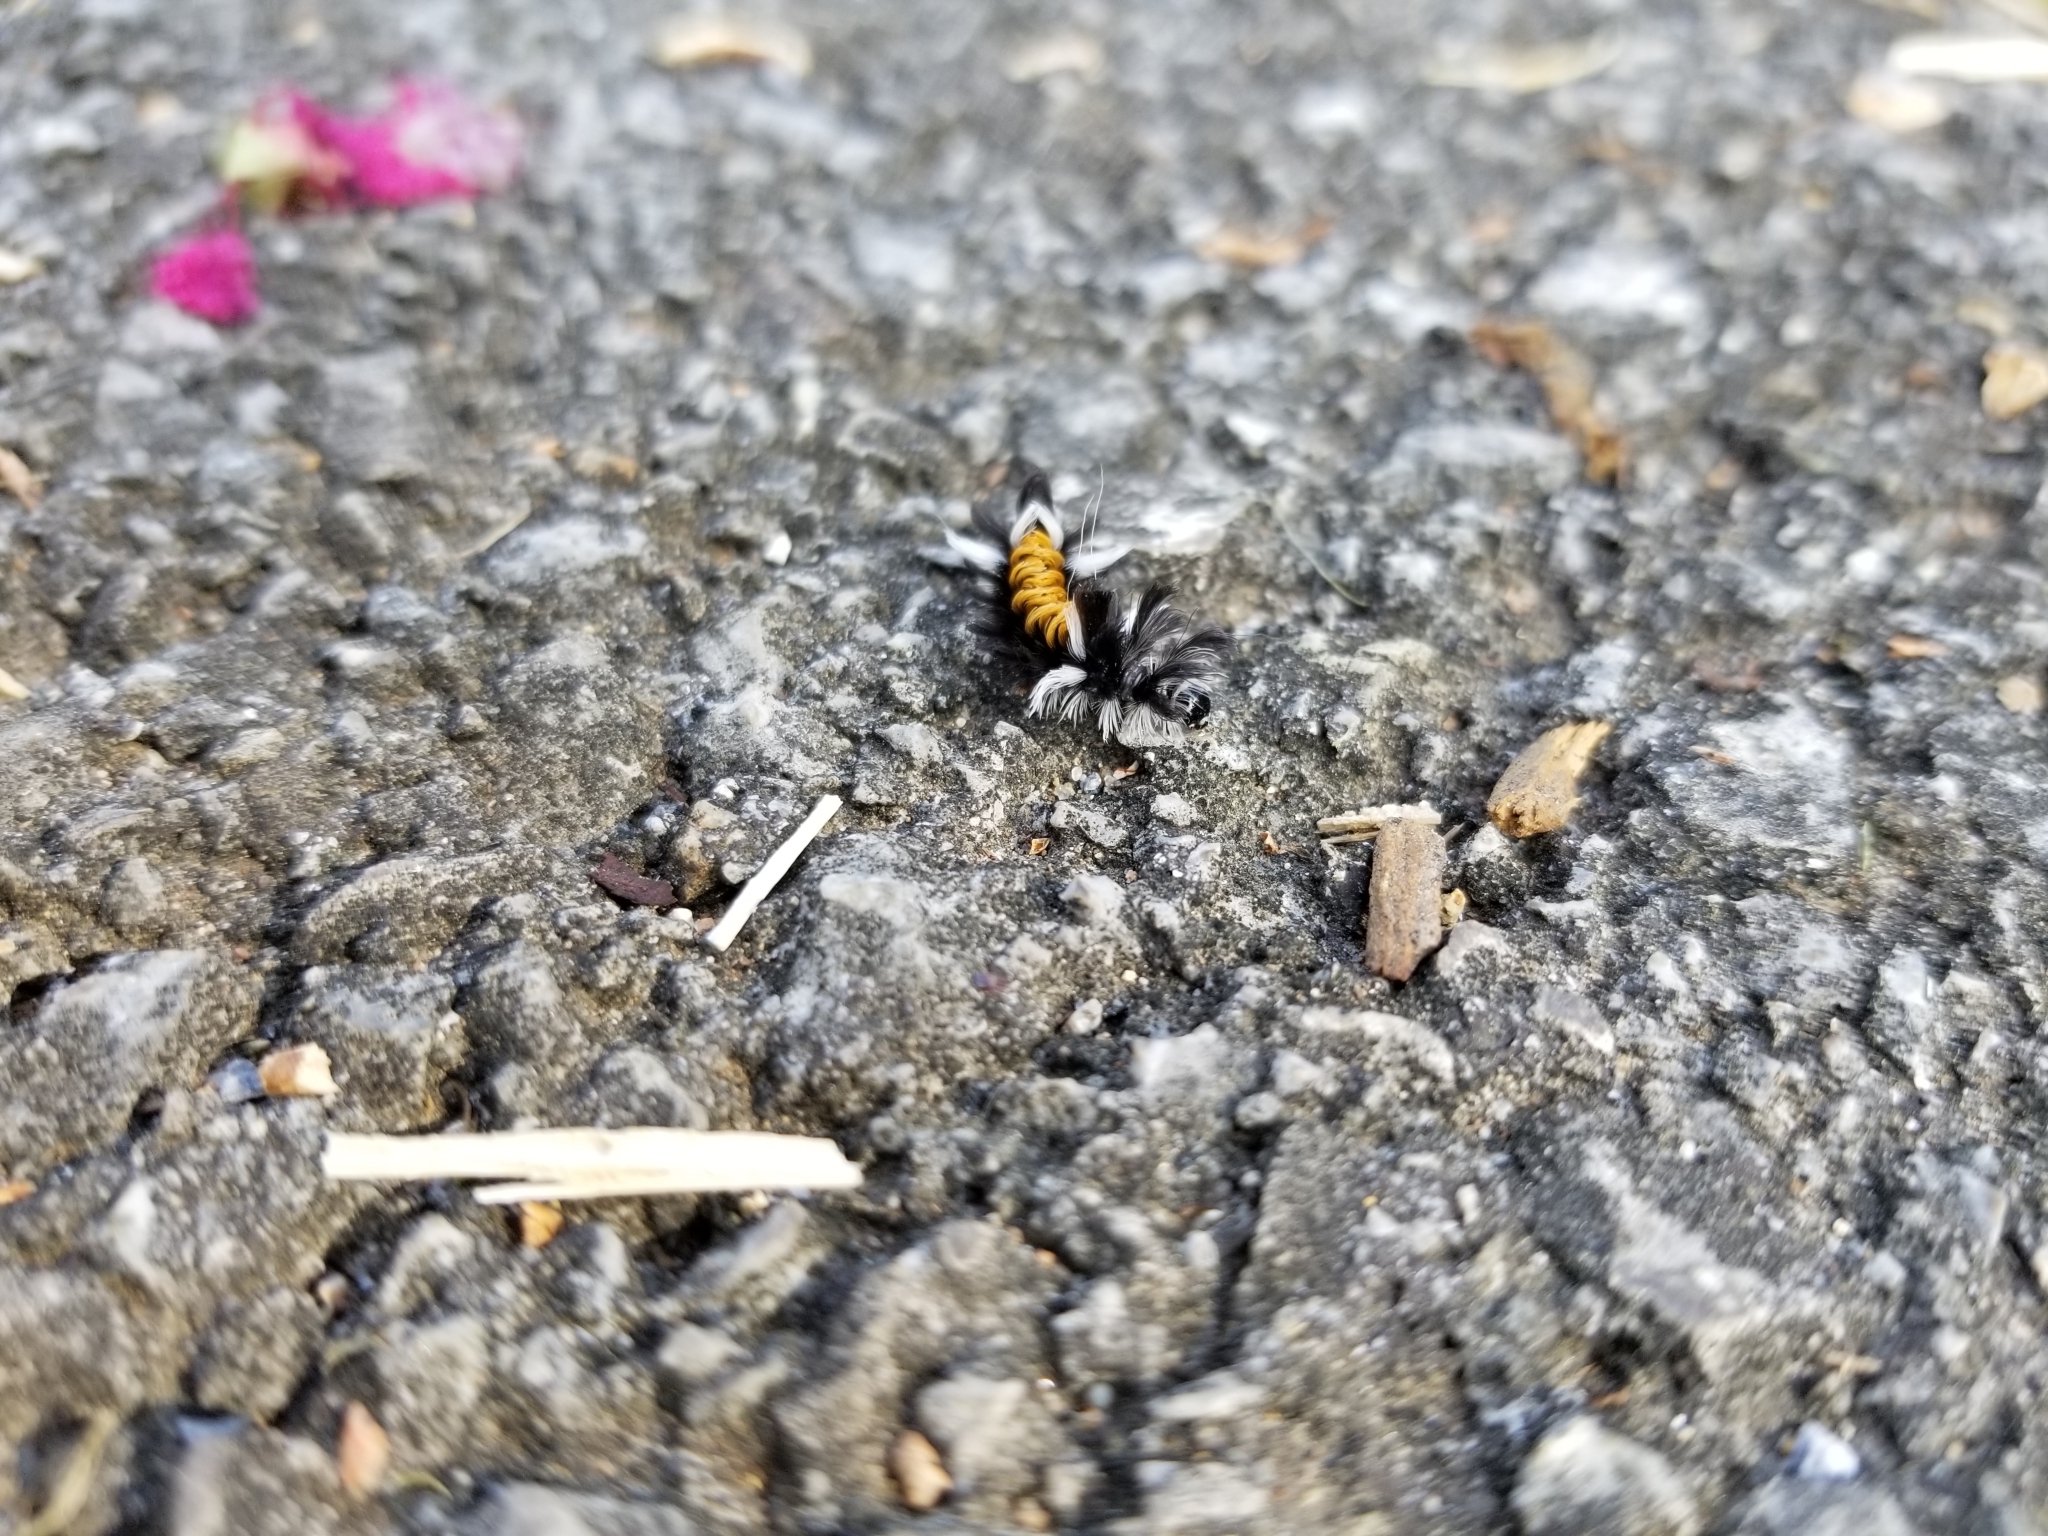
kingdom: Animalia
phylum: Arthropoda
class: Insecta
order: Lepidoptera
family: Erebidae
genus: Euchaetes
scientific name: Euchaetes egle
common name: Milkweed tussock moth
